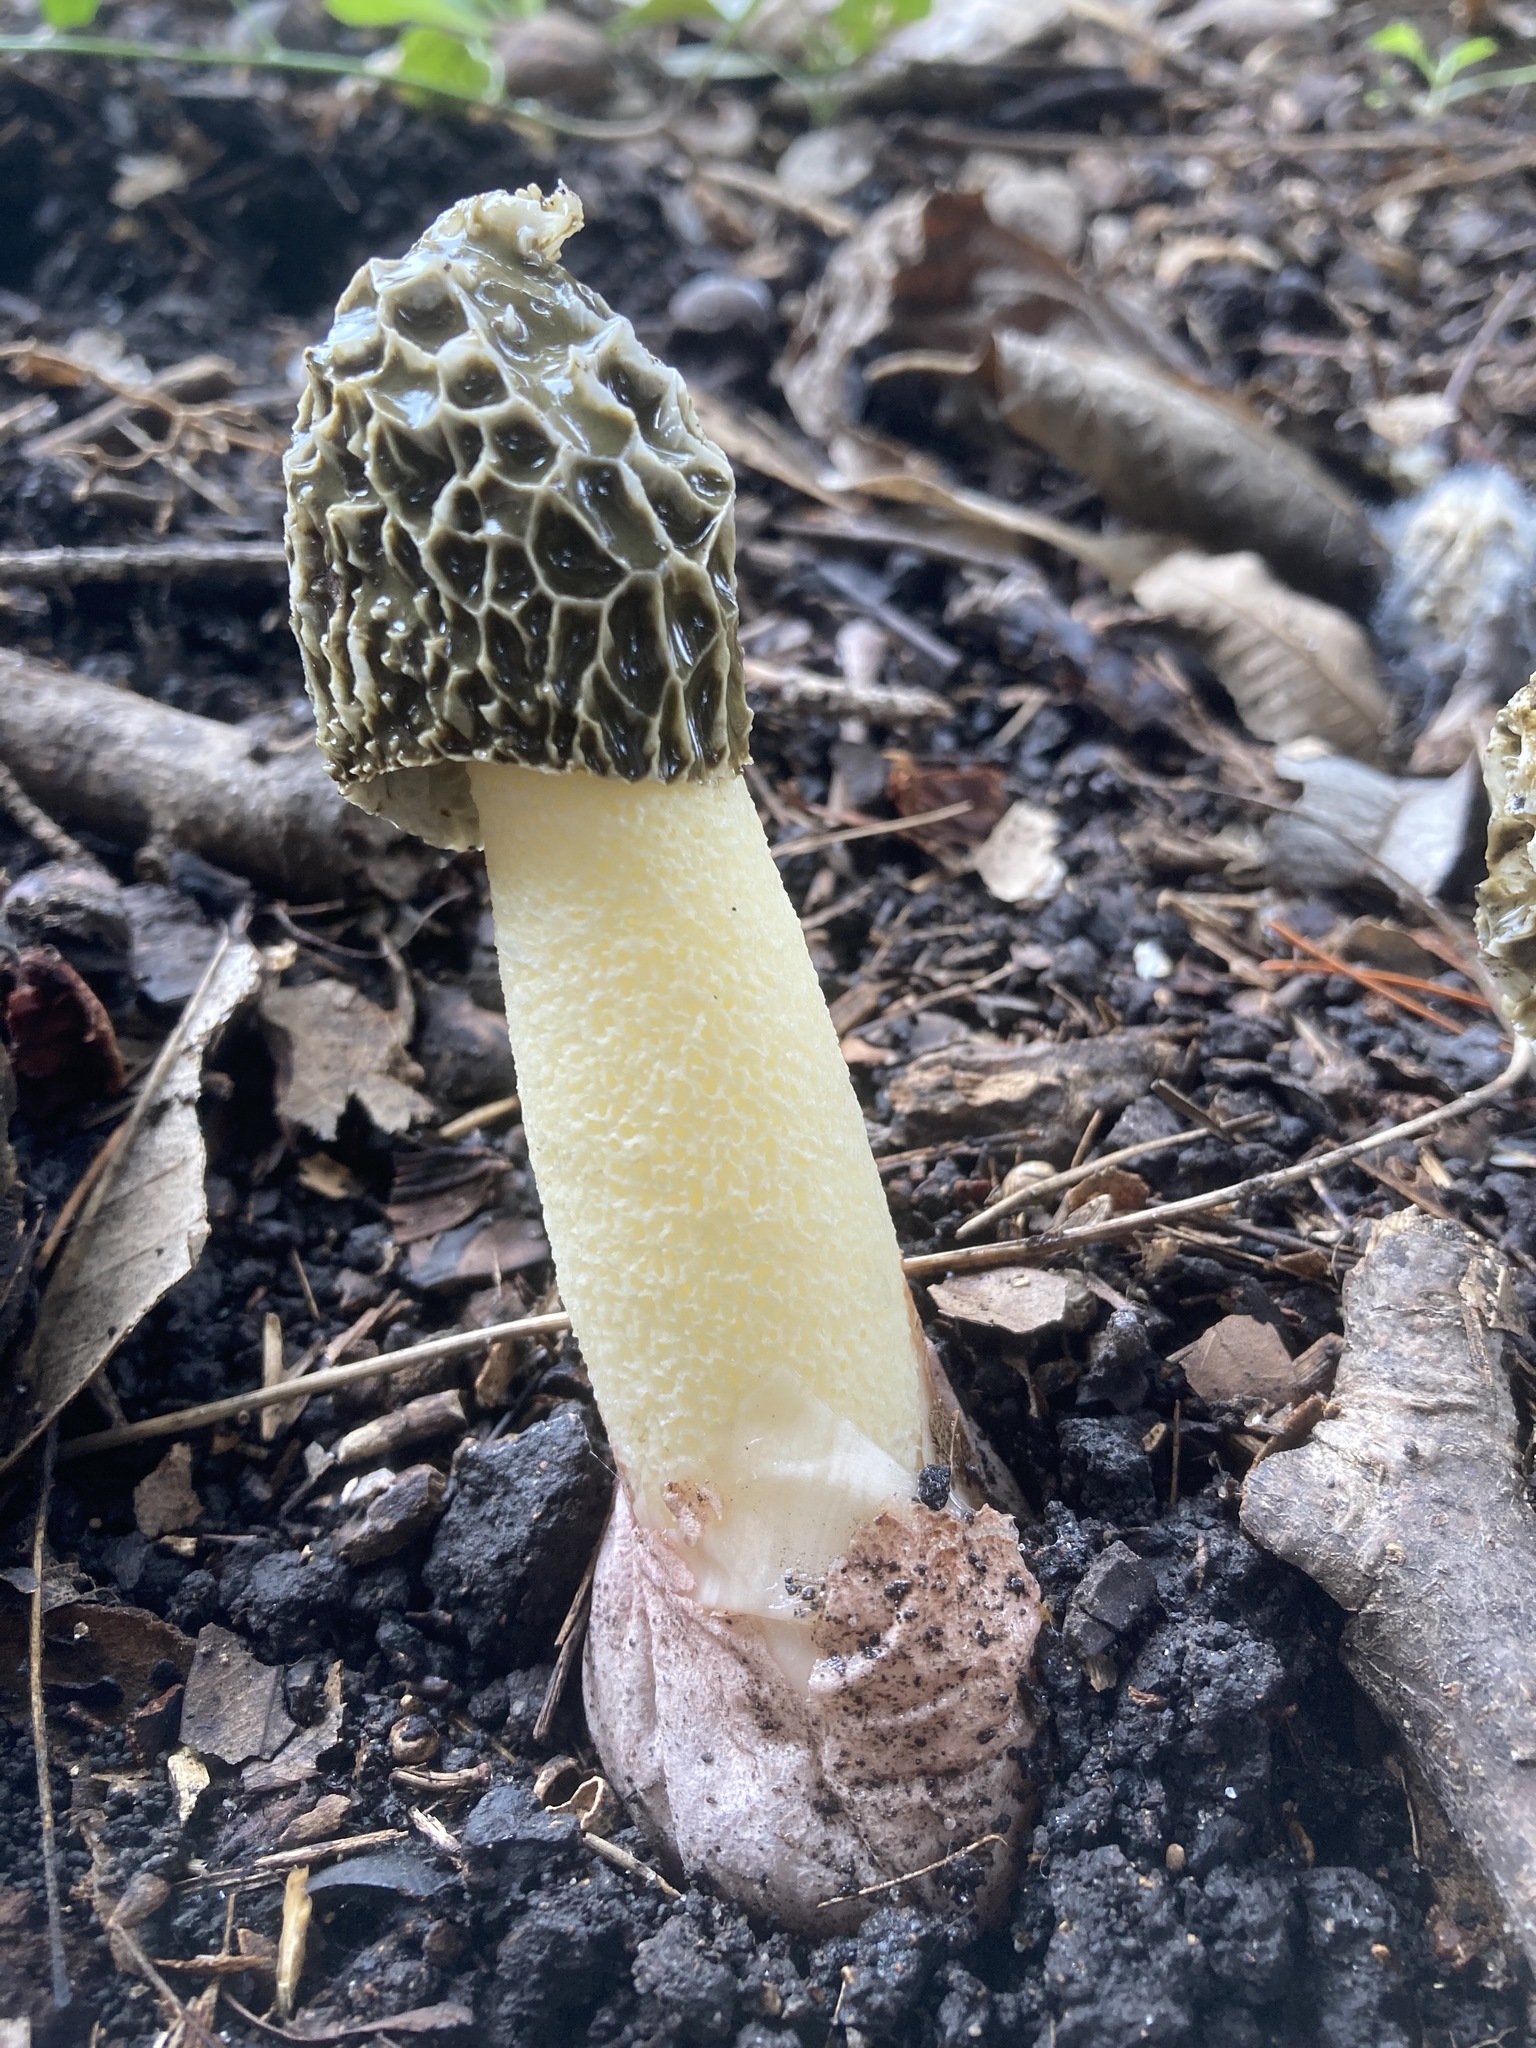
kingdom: Fungi
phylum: Basidiomycota
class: Agaricomycetes
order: Phallales
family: Phallaceae
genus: Phallus
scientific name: Phallus hadriani
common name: Sand stinkhorn
